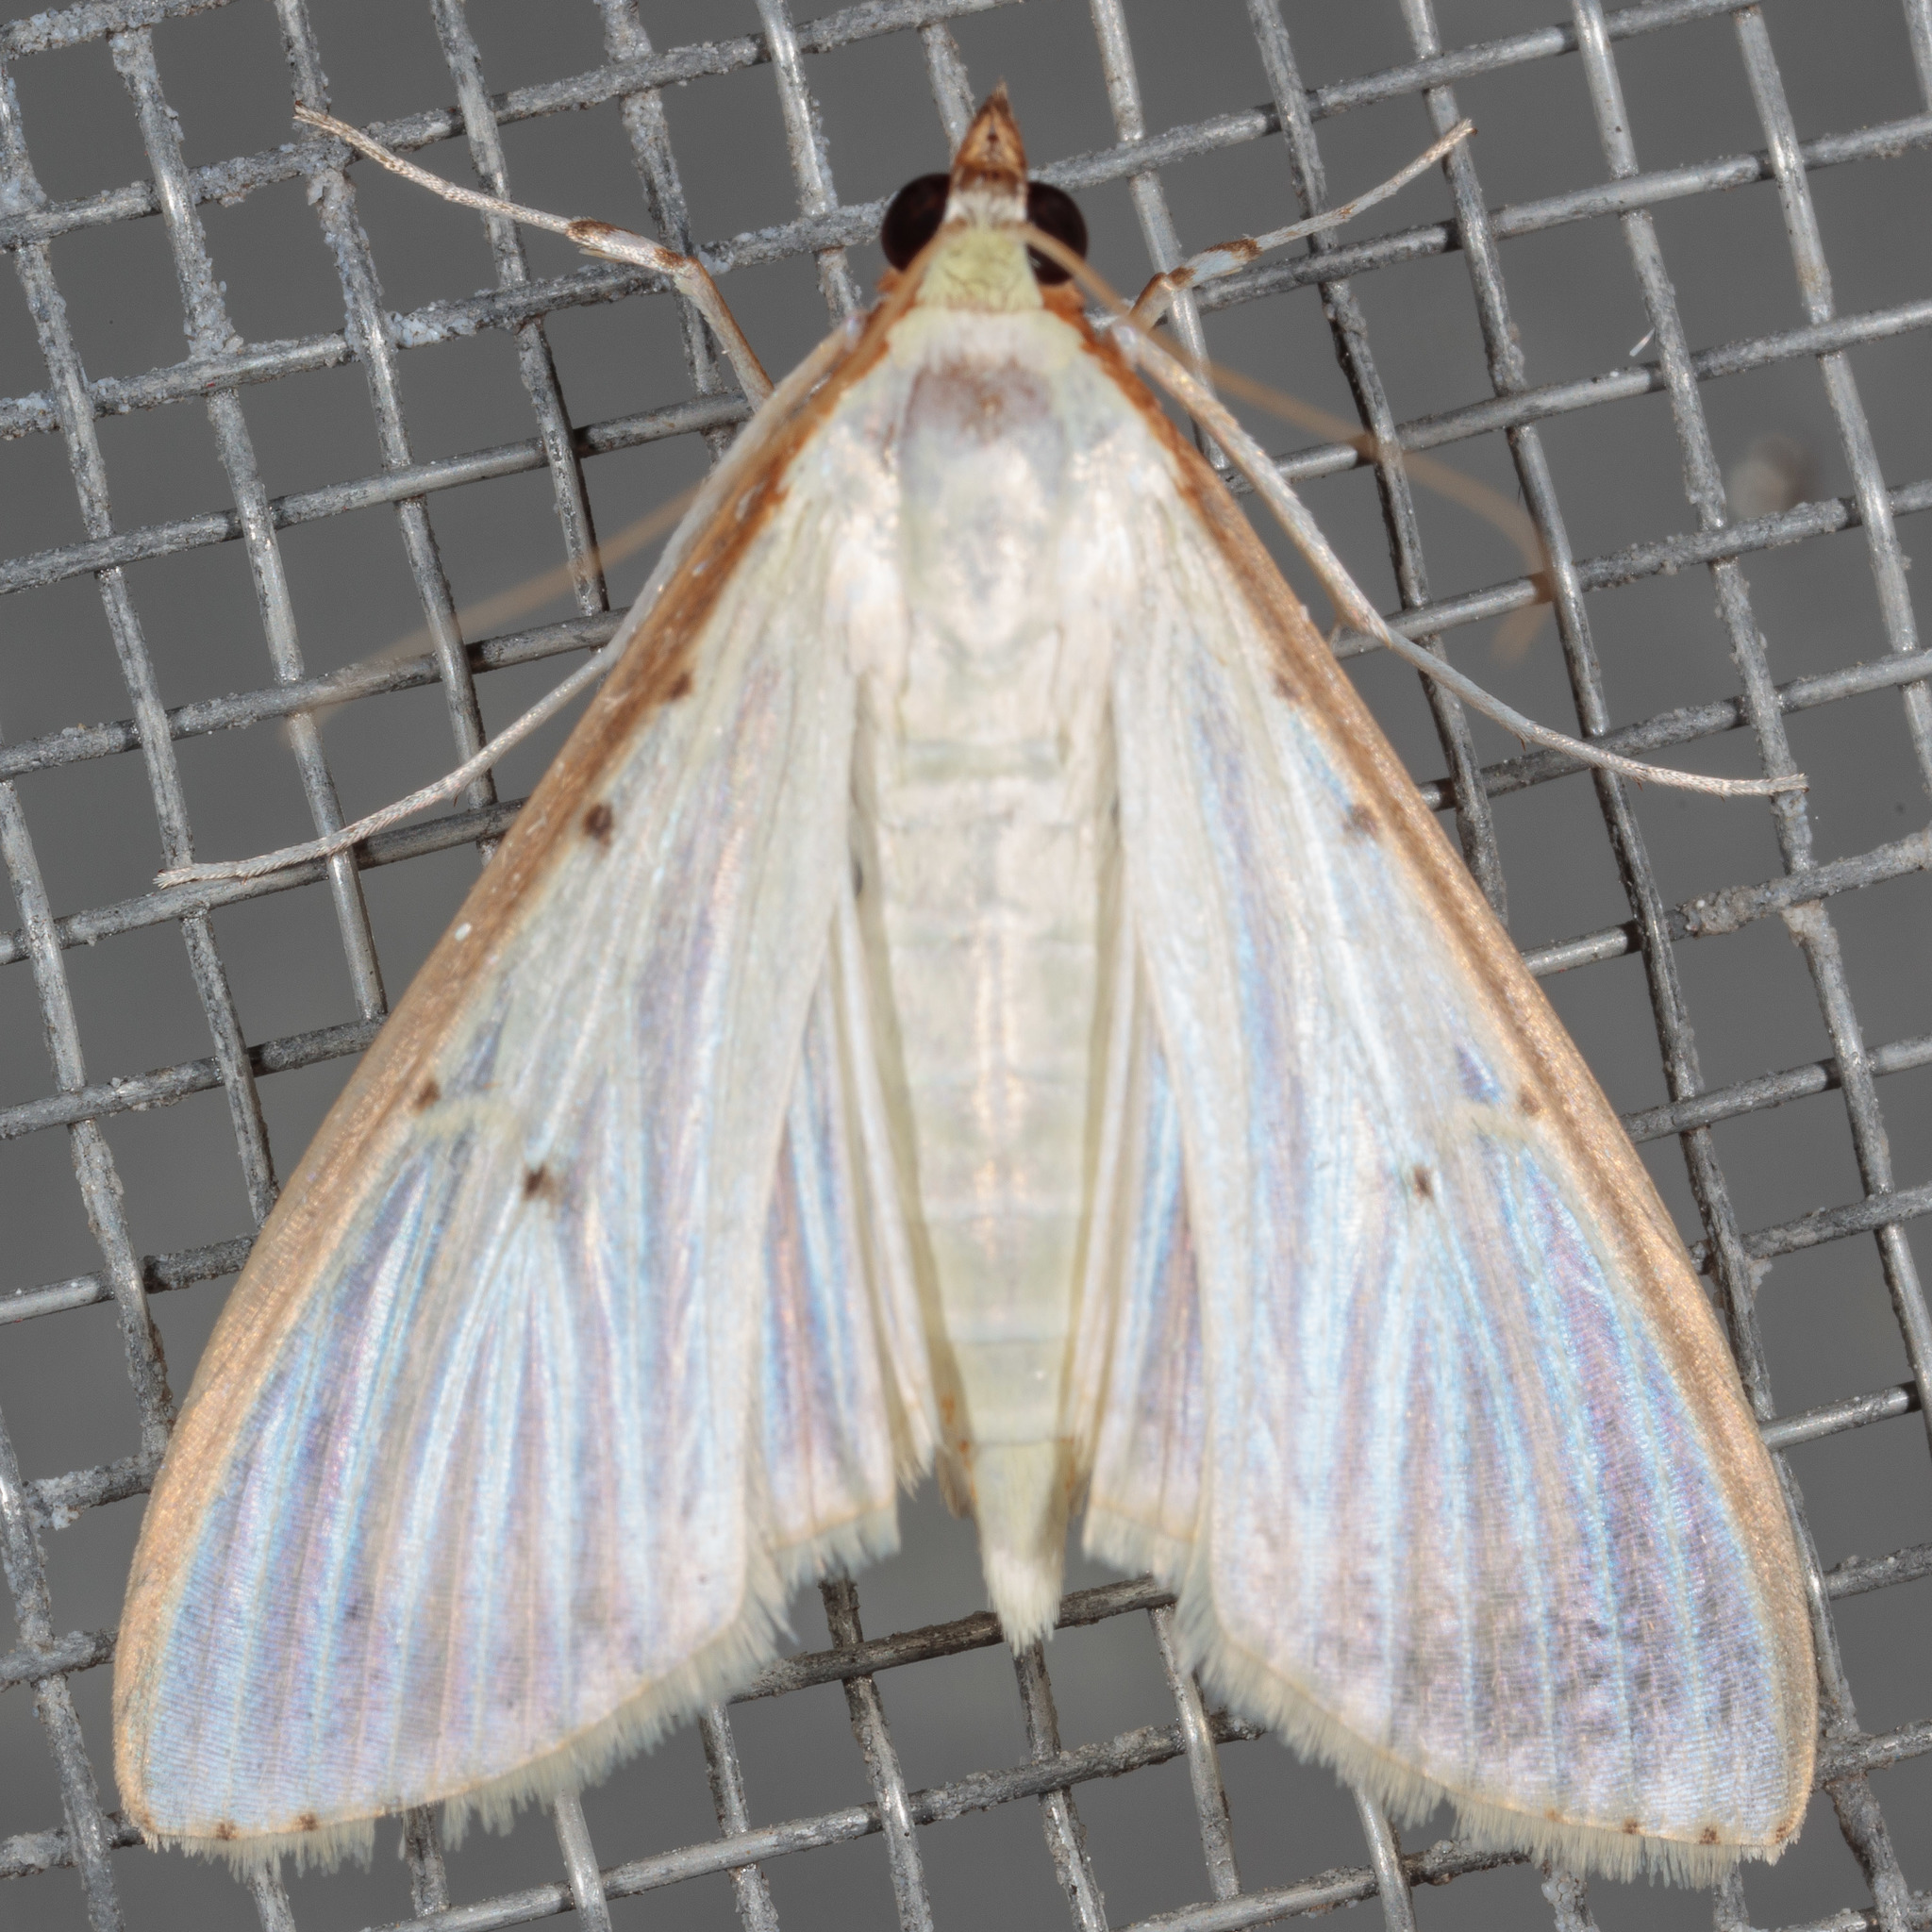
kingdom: Animalia
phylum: Arthropoda
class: Insecta
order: Lepidoptera
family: Crambidae
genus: Palpita
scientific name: Palpita quadristigmalis
